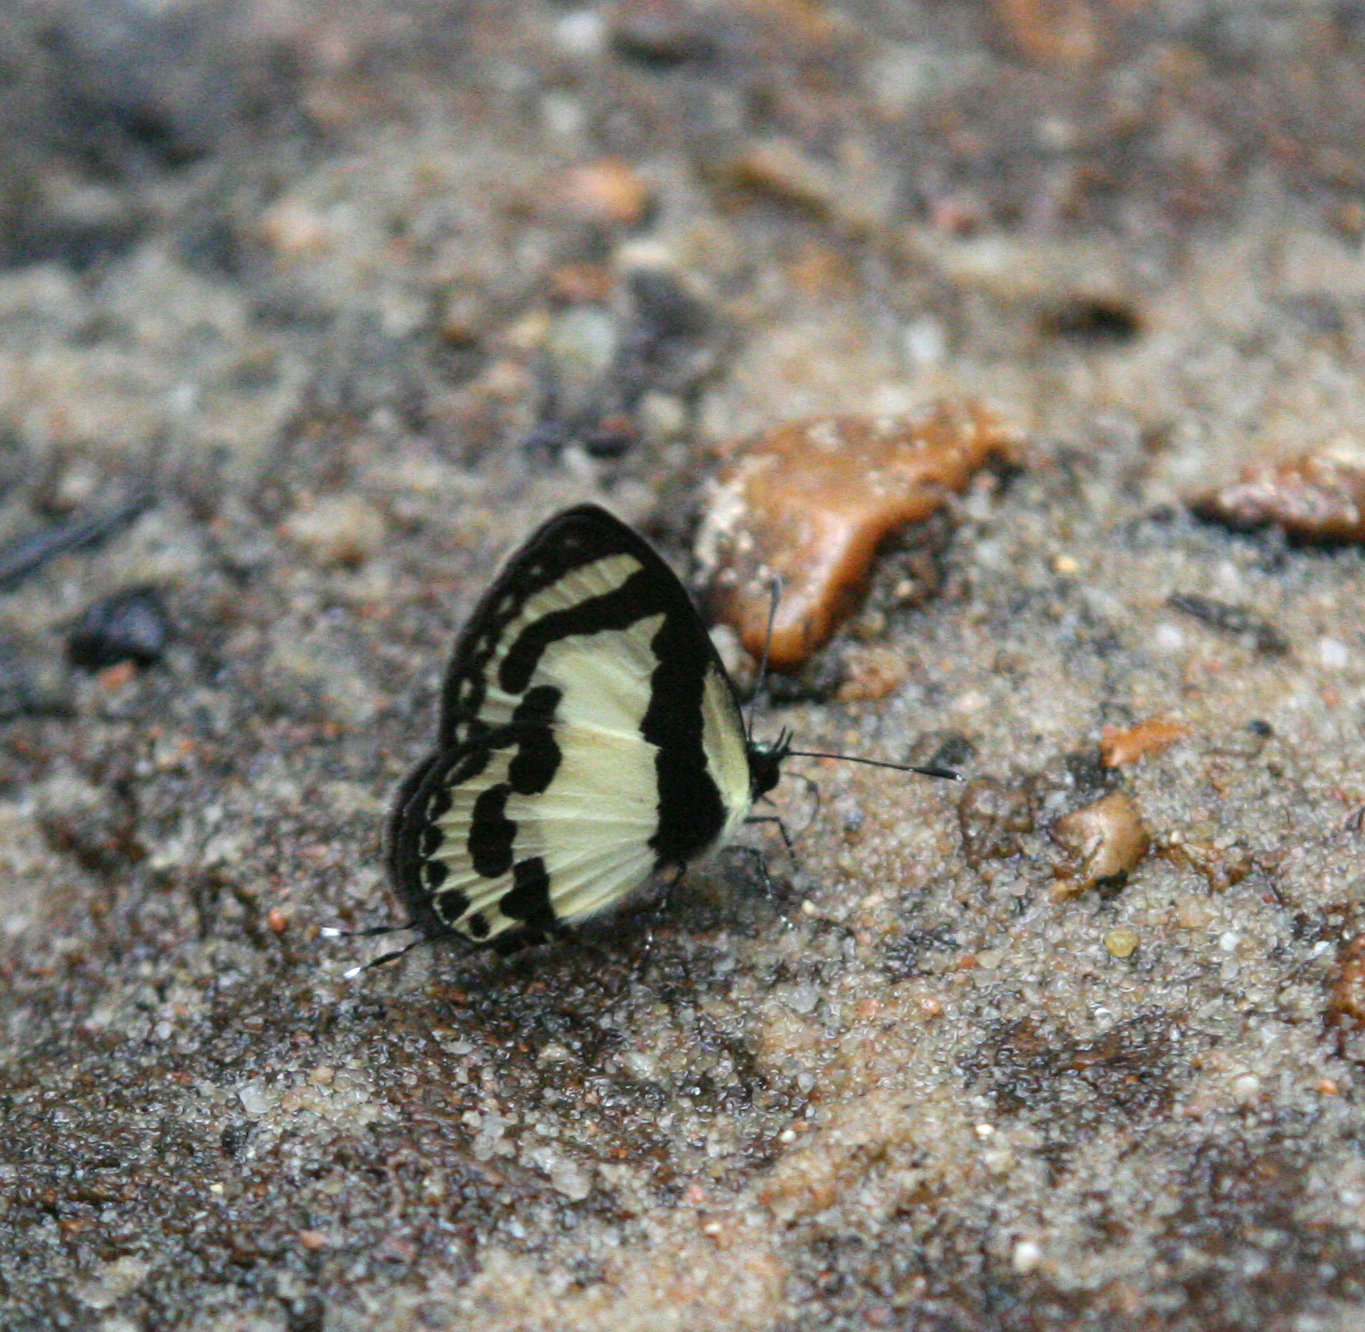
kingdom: Animalia
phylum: Arthropoda
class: Insecta
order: Lepidoptera
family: Lycaenidae
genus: Caleta
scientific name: Caleta roxus
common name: Straight pierrot
